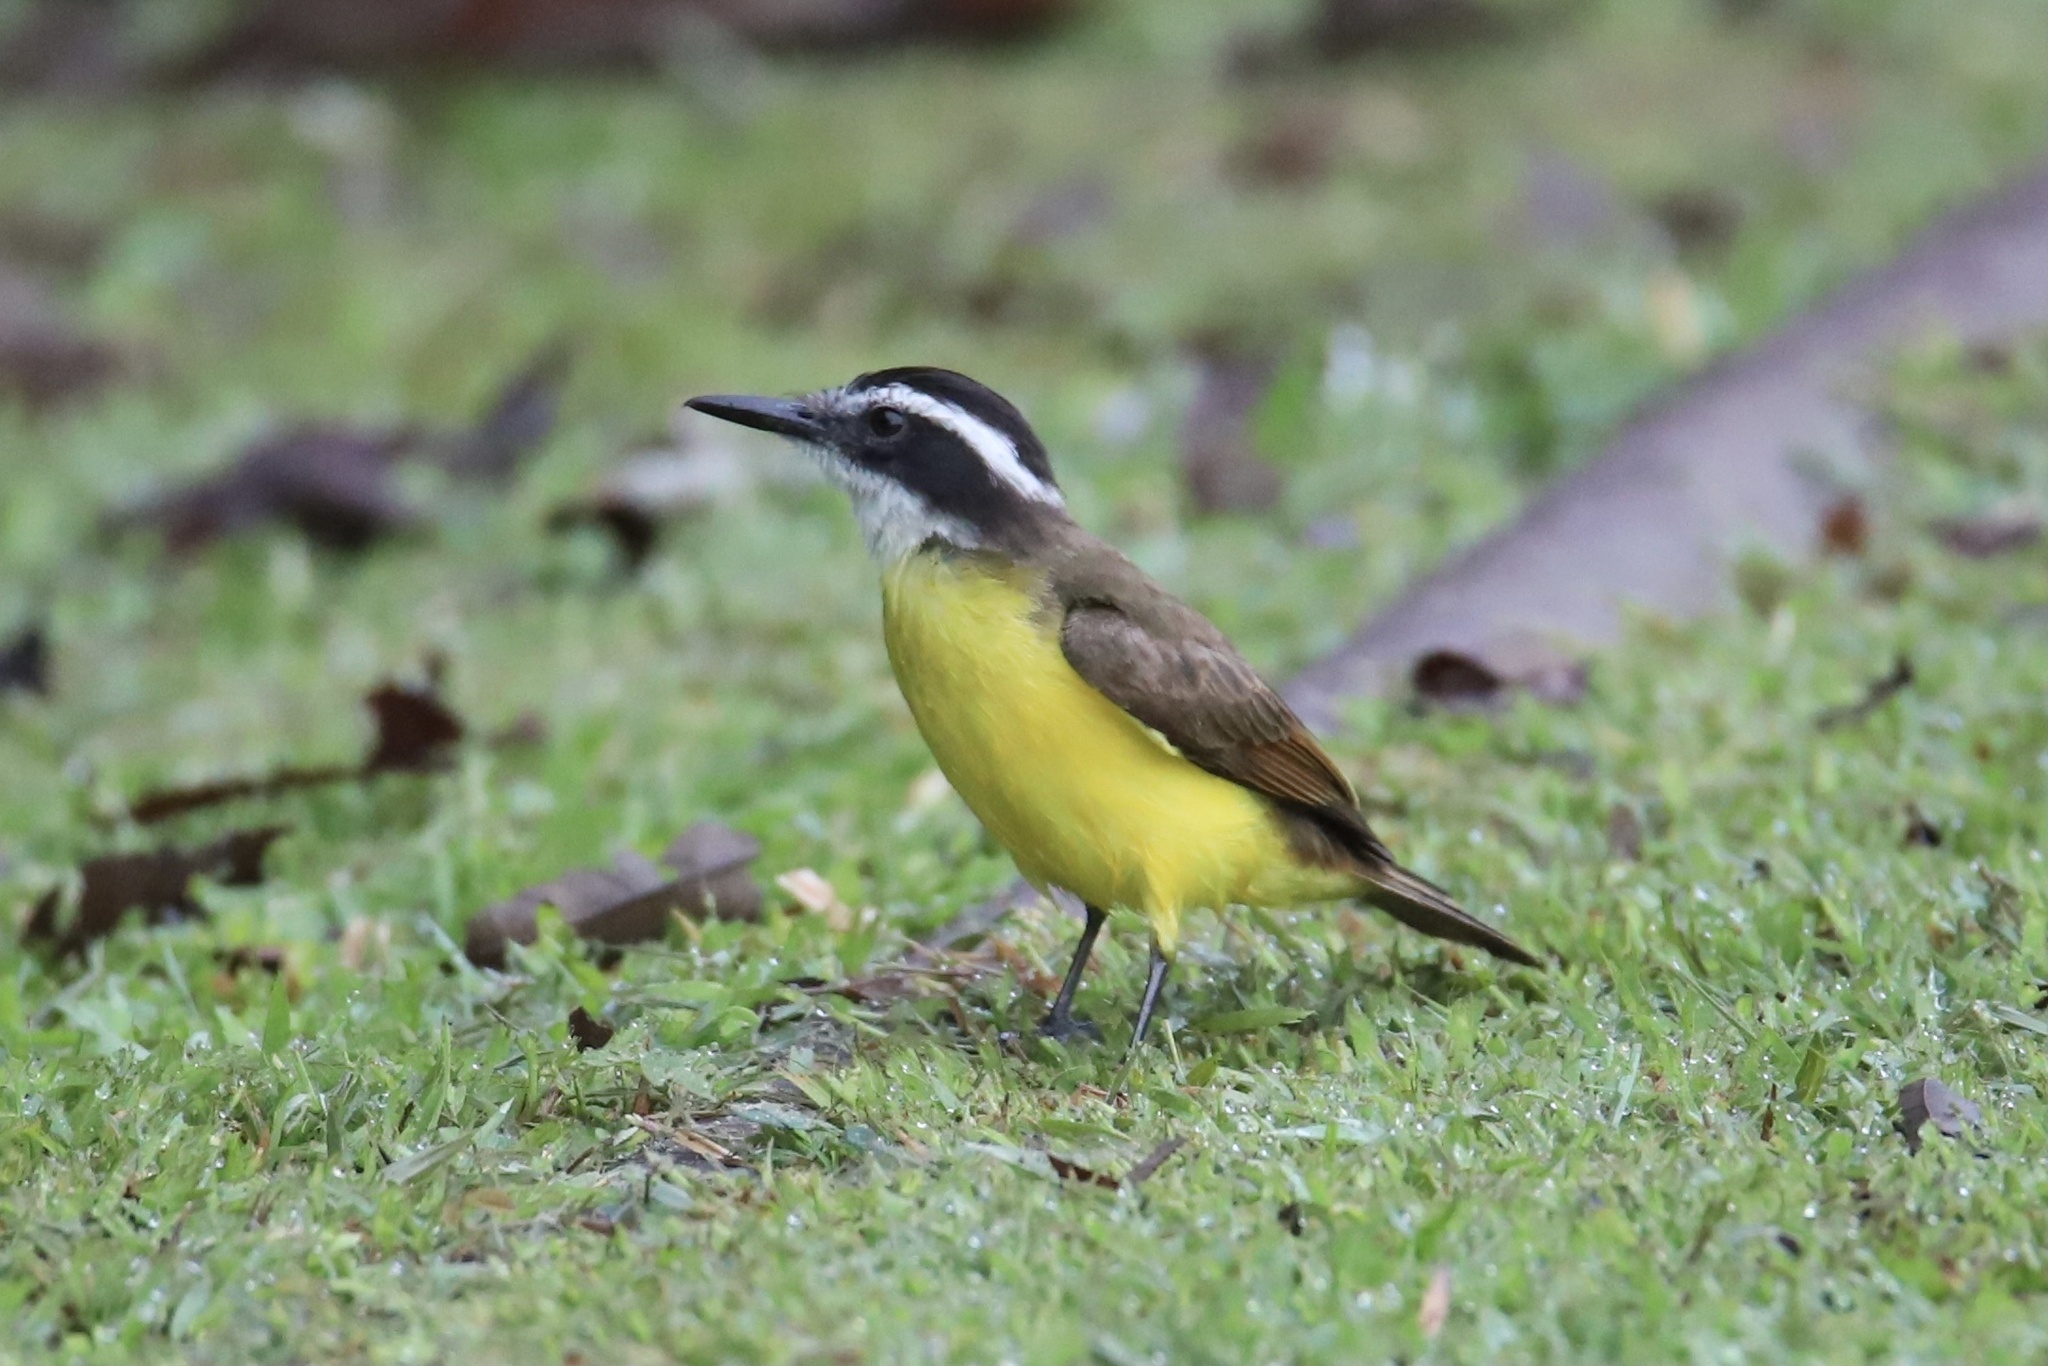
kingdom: Animalia
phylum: Chordata
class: Aves
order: Passeriformes
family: Tyrannidae
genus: Pitangus
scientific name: Pitangus lictor
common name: Lesser kiskadee
